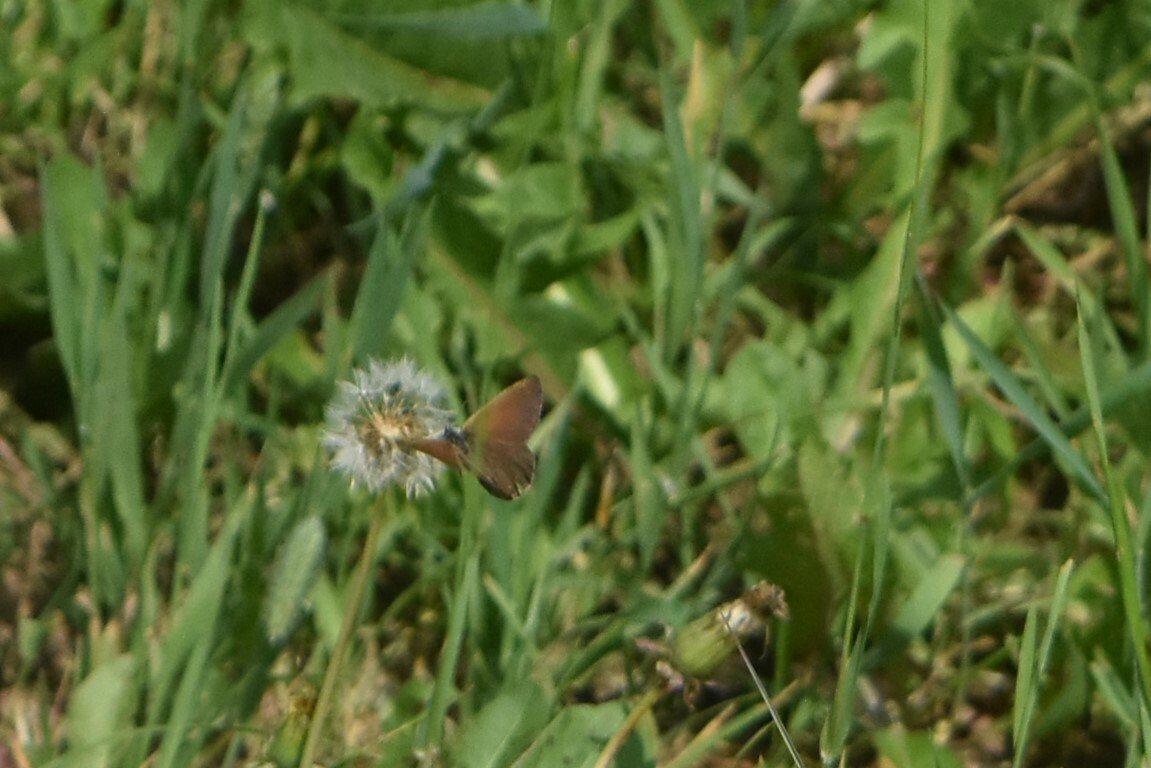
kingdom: Animalia
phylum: Arthropoda
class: Insecta
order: Lepidoptera
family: Nymphalidae
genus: Coenonympha
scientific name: Coenonympha iphis
